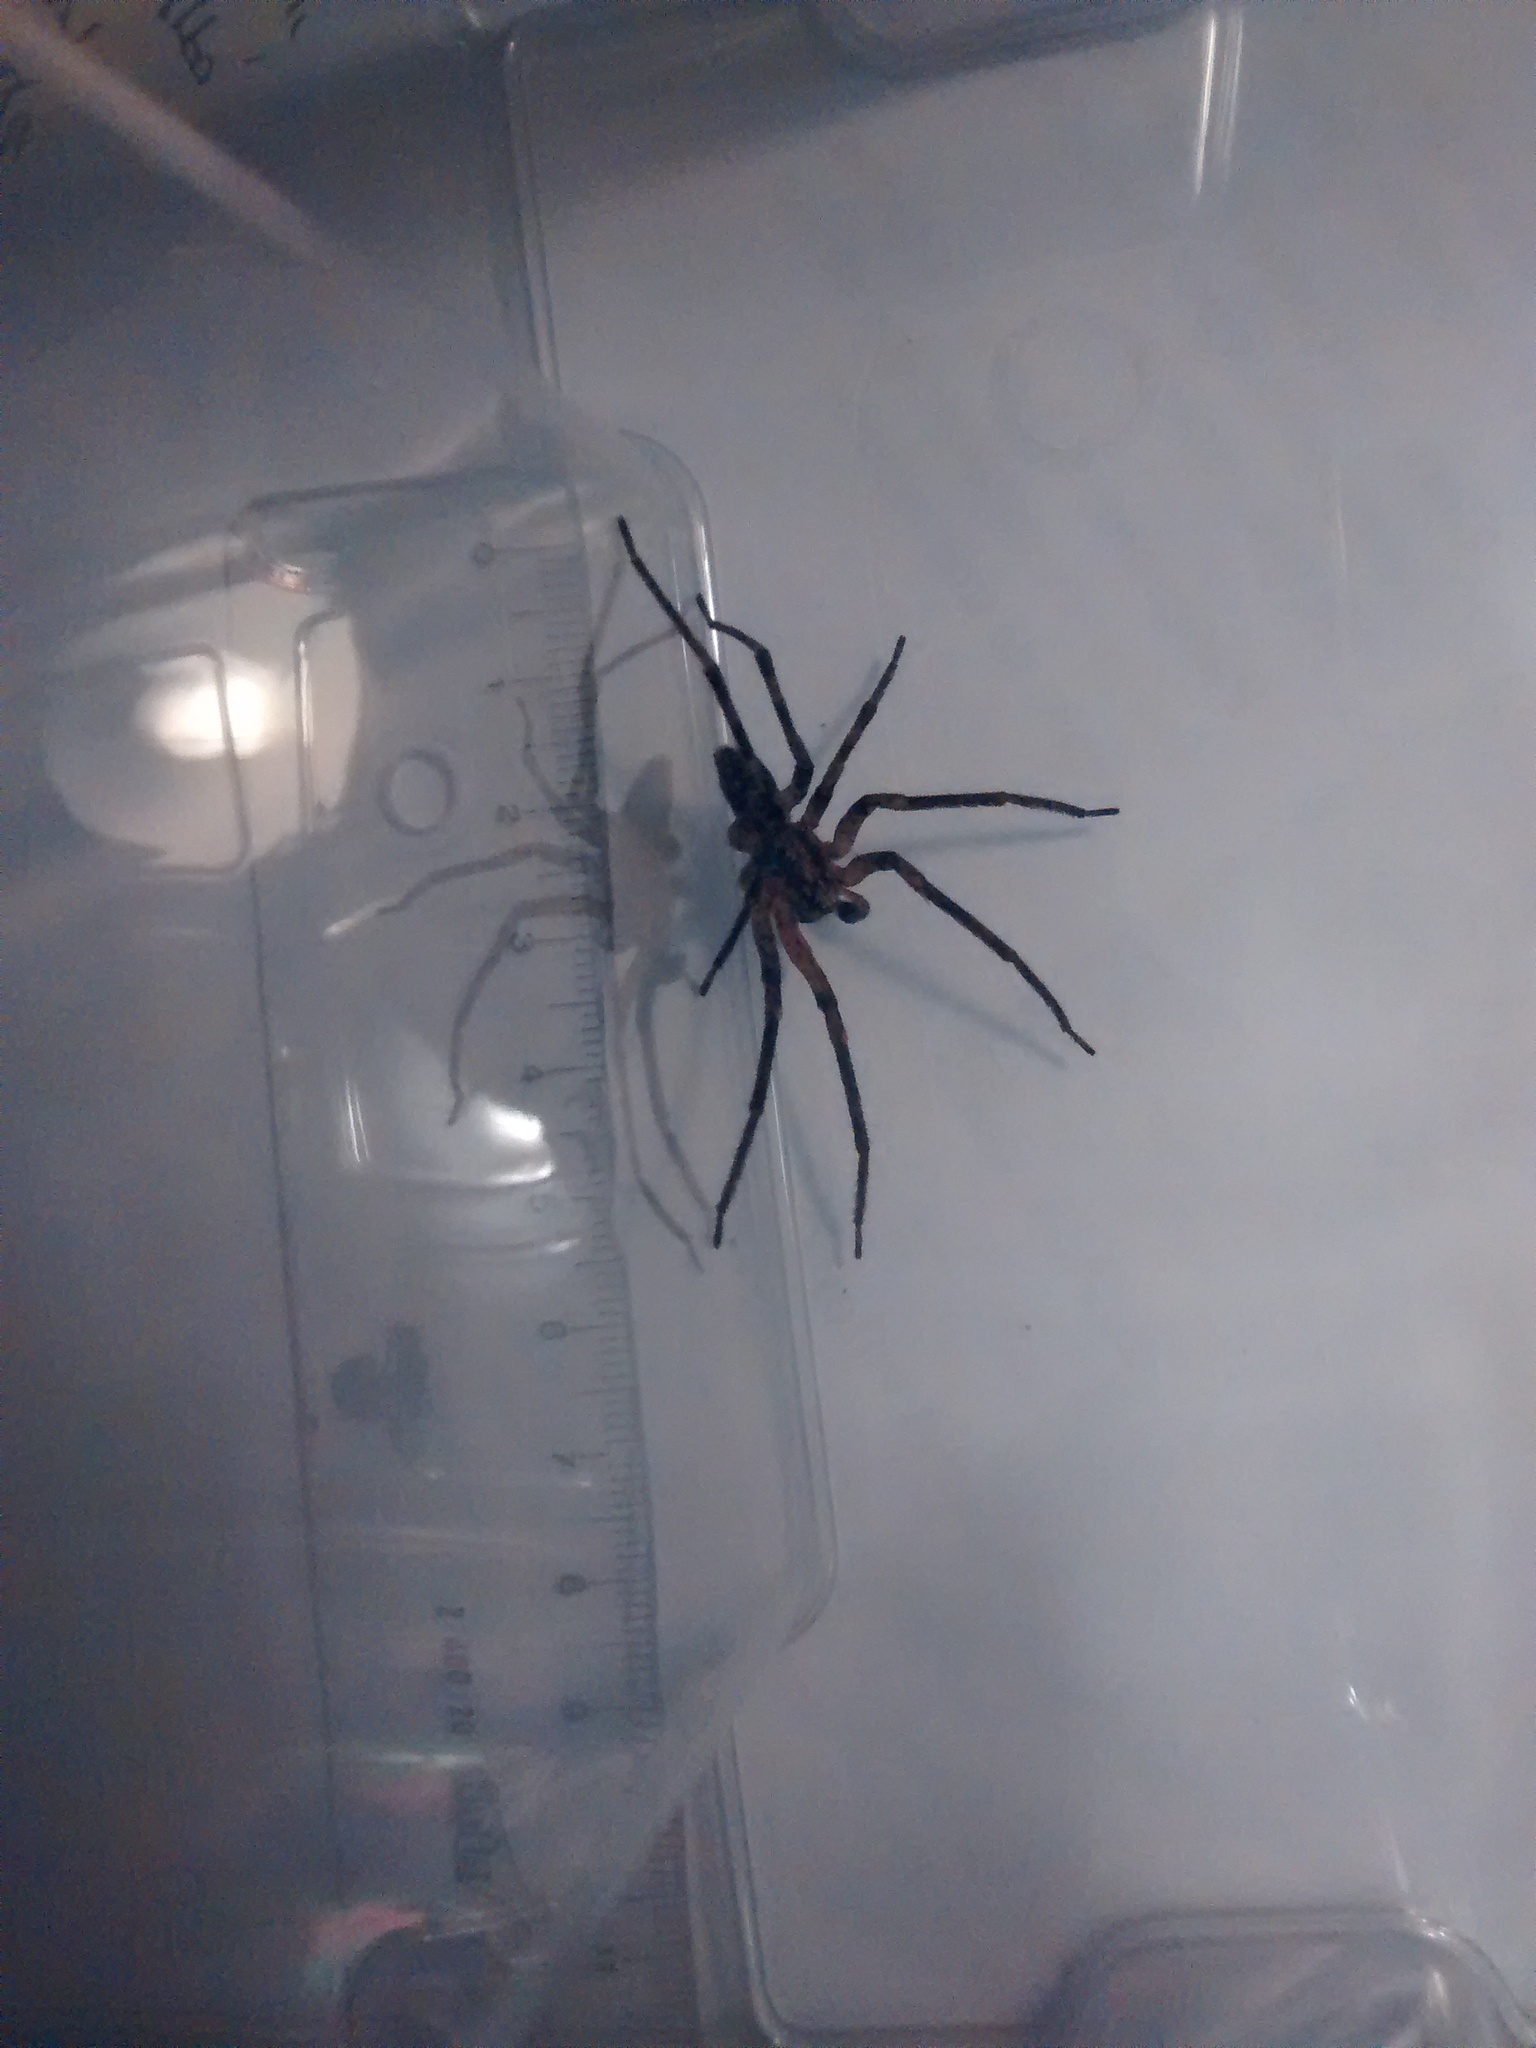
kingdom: Animalia
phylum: Arthropoda
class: Arachnida
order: Araneae
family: Zoropsidae
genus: Zoropsis
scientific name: Zoropsis spinimana
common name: Zoropsid spider
